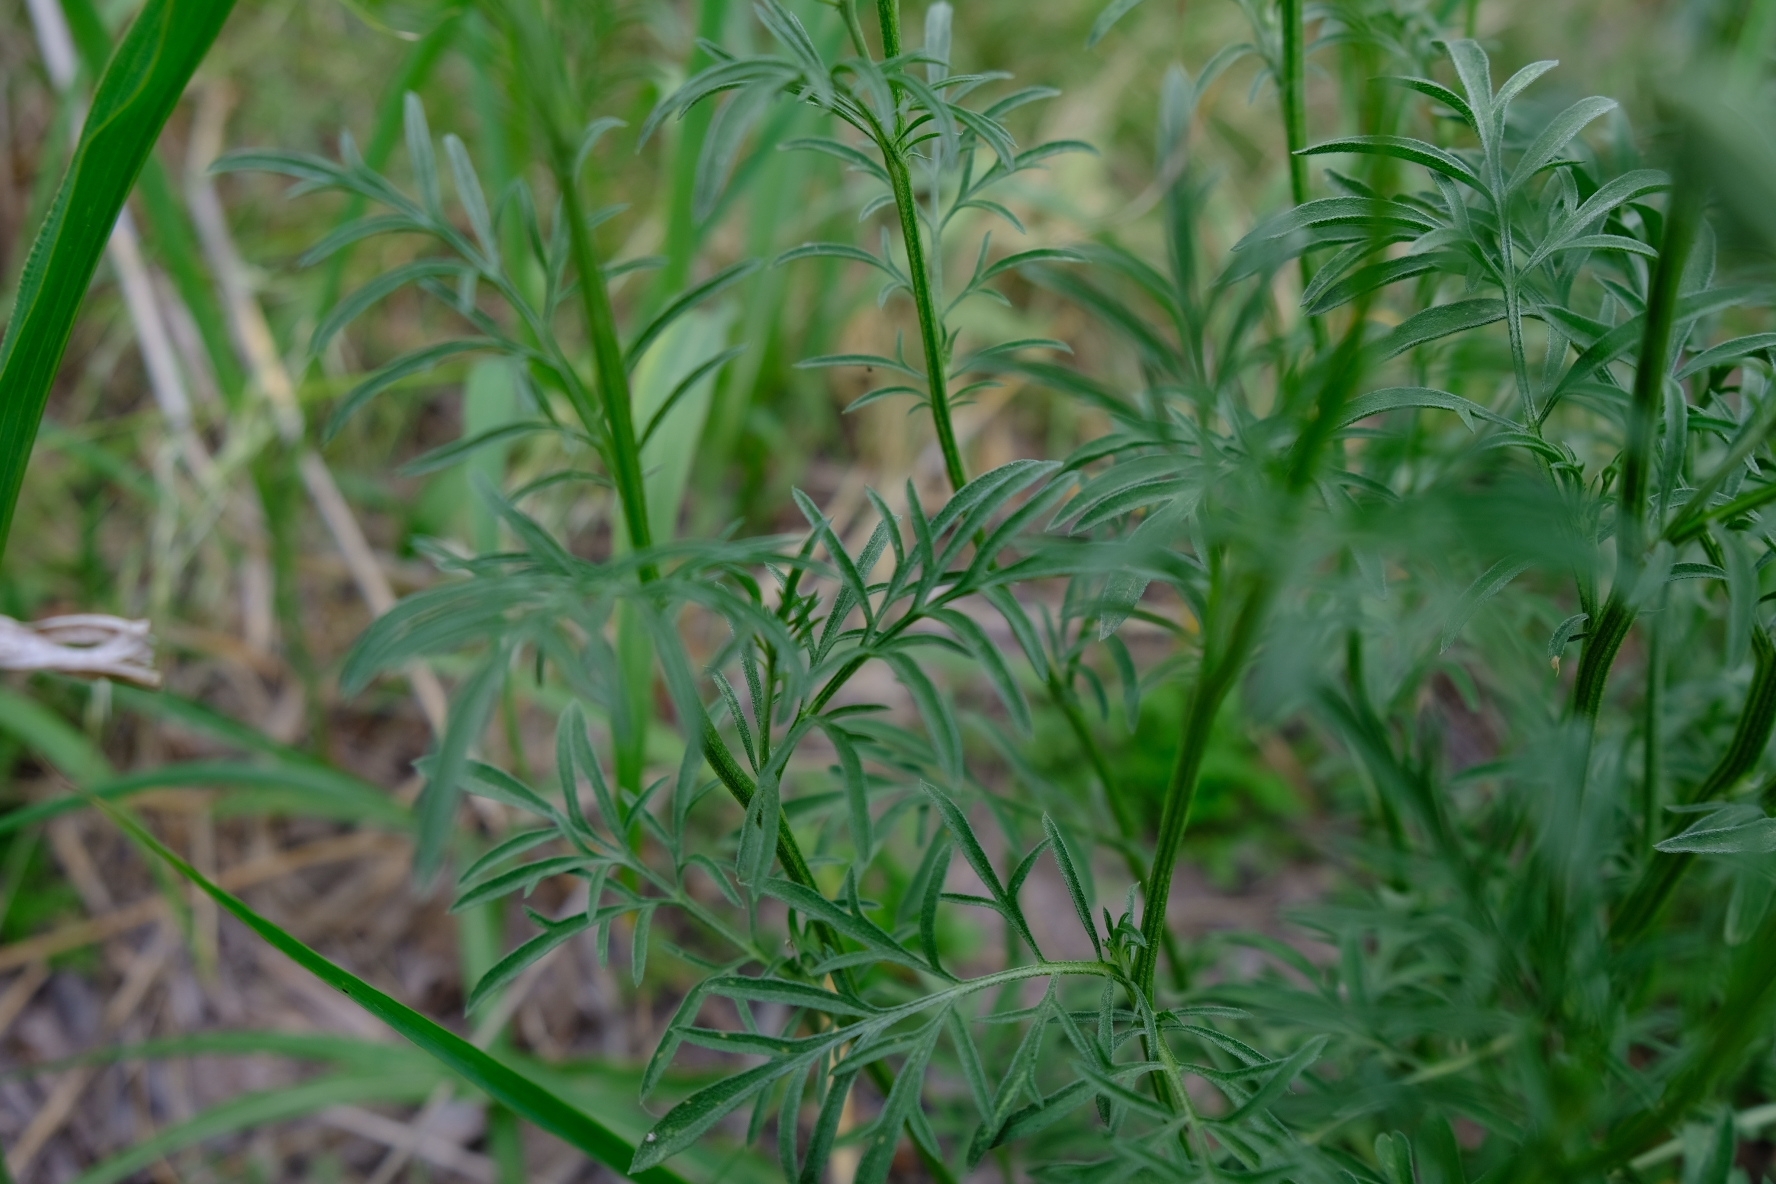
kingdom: Plantae
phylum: Tracheophyta
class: Magnoliopsida
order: Asterales
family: Asteraceae
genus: Ratibida
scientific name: Ratibida columnifera
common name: Prairie coneflower
